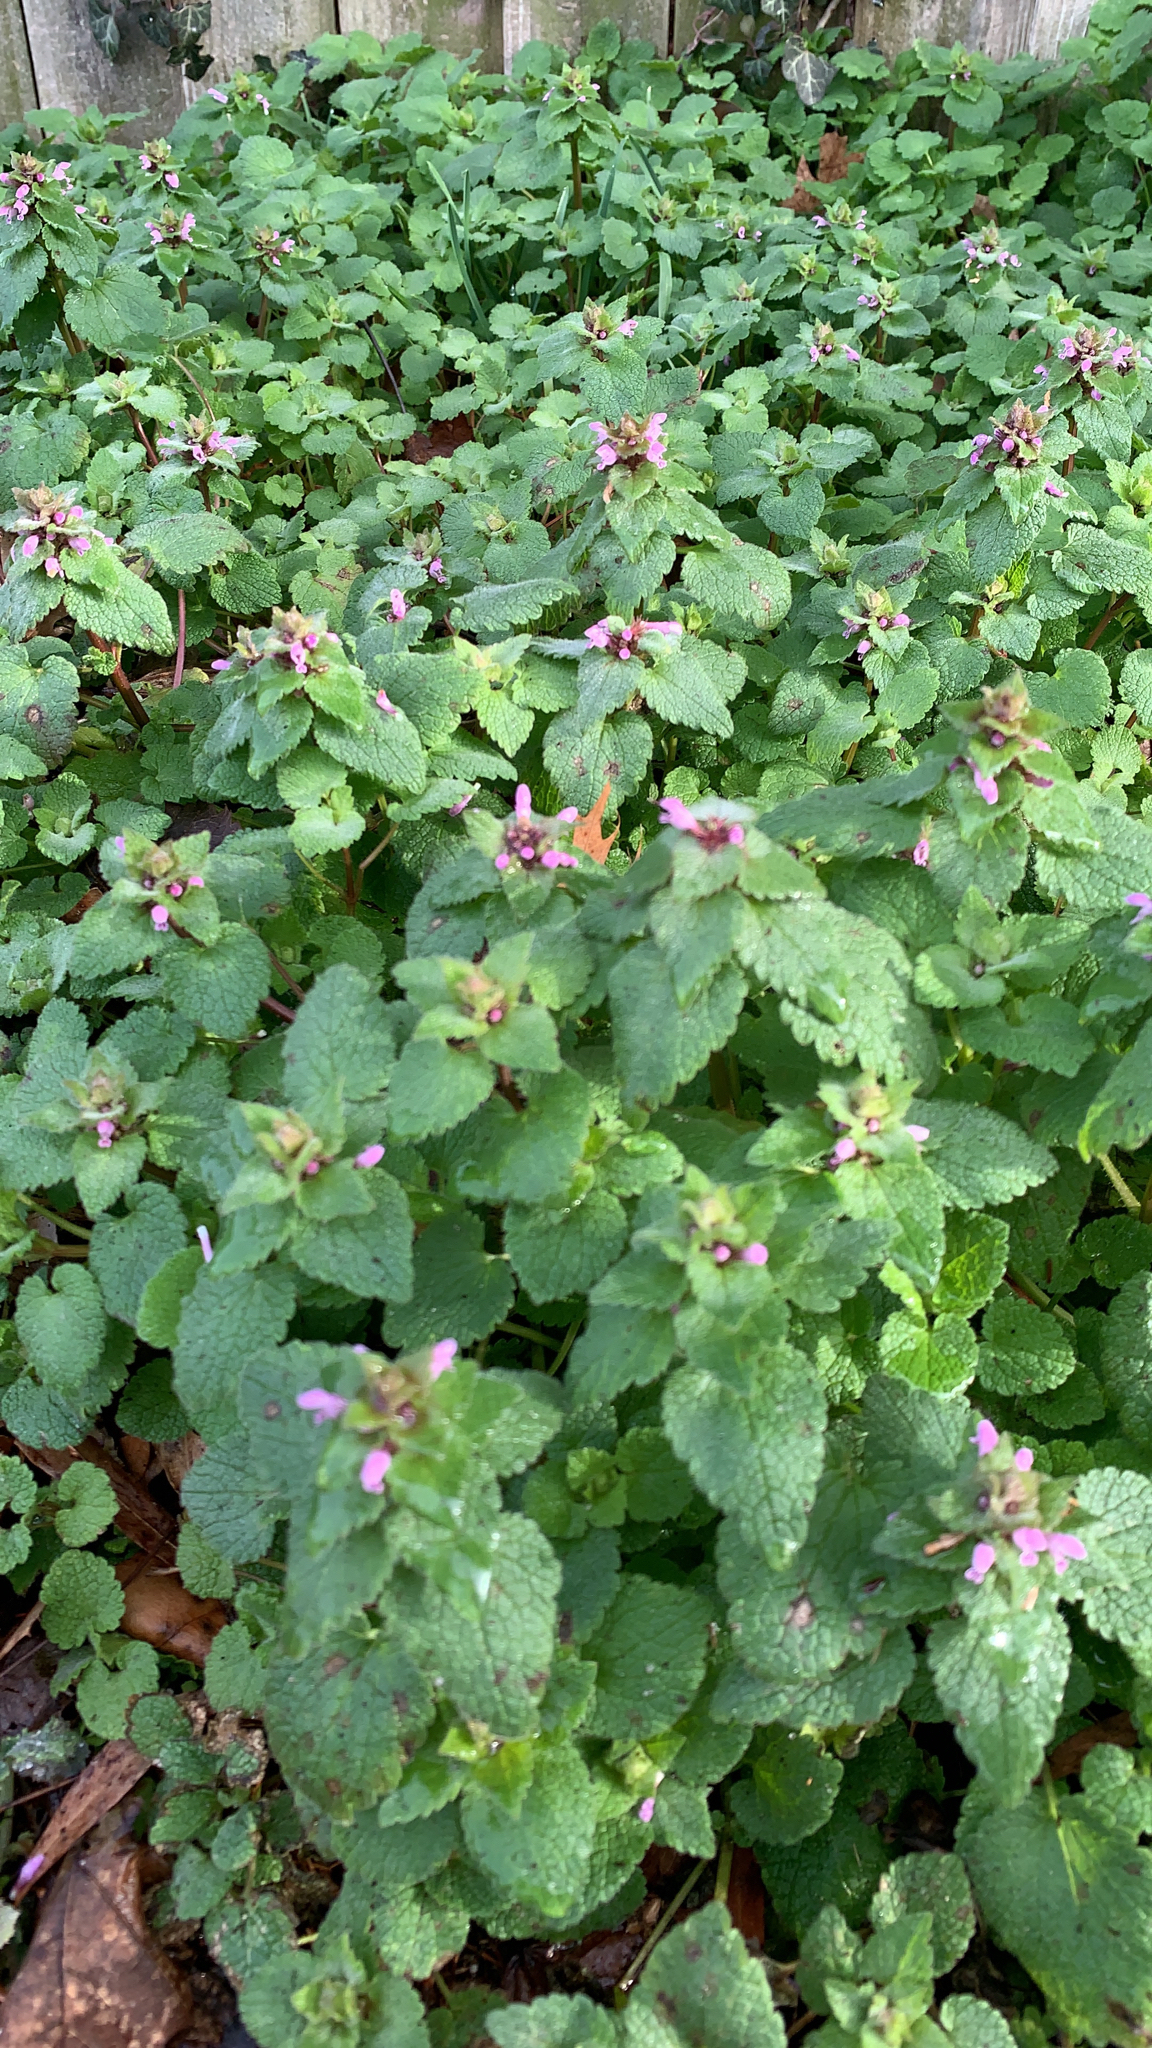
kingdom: Plantae
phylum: Tracheophyta
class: Magnoliopsida
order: Lamiales
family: Lamiaceae
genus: Lamium
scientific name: Lamium purpureum
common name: Red dead-nettle
